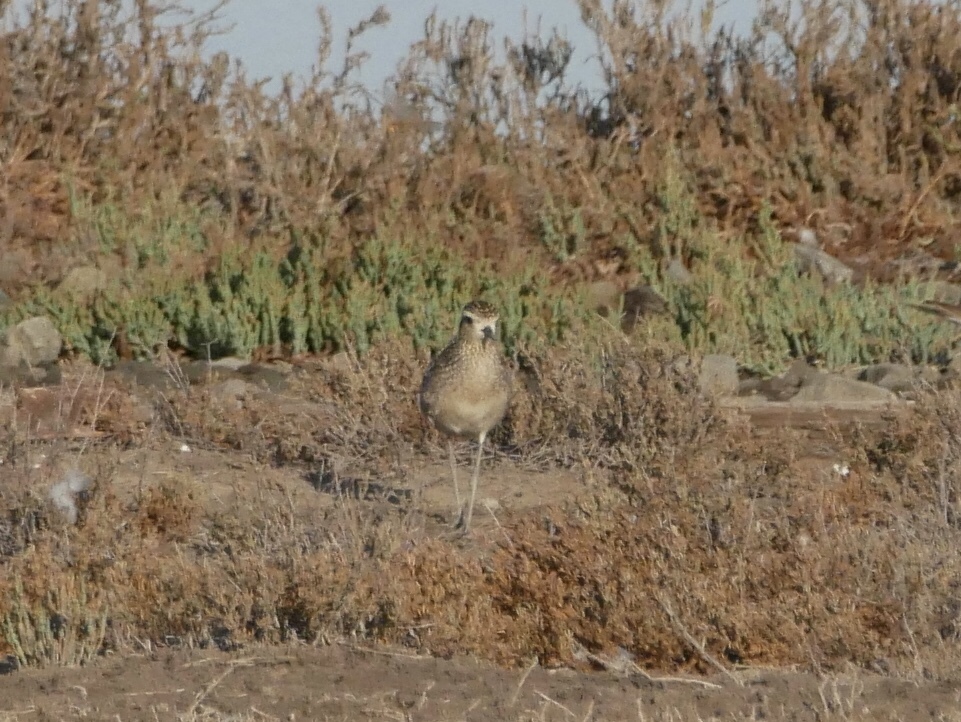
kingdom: Animalia
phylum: Chordata
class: Aves
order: Charadriiformes
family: Charadriidae
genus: Pluvialis
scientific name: Pluvialis fulva
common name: Pacific golden plover
